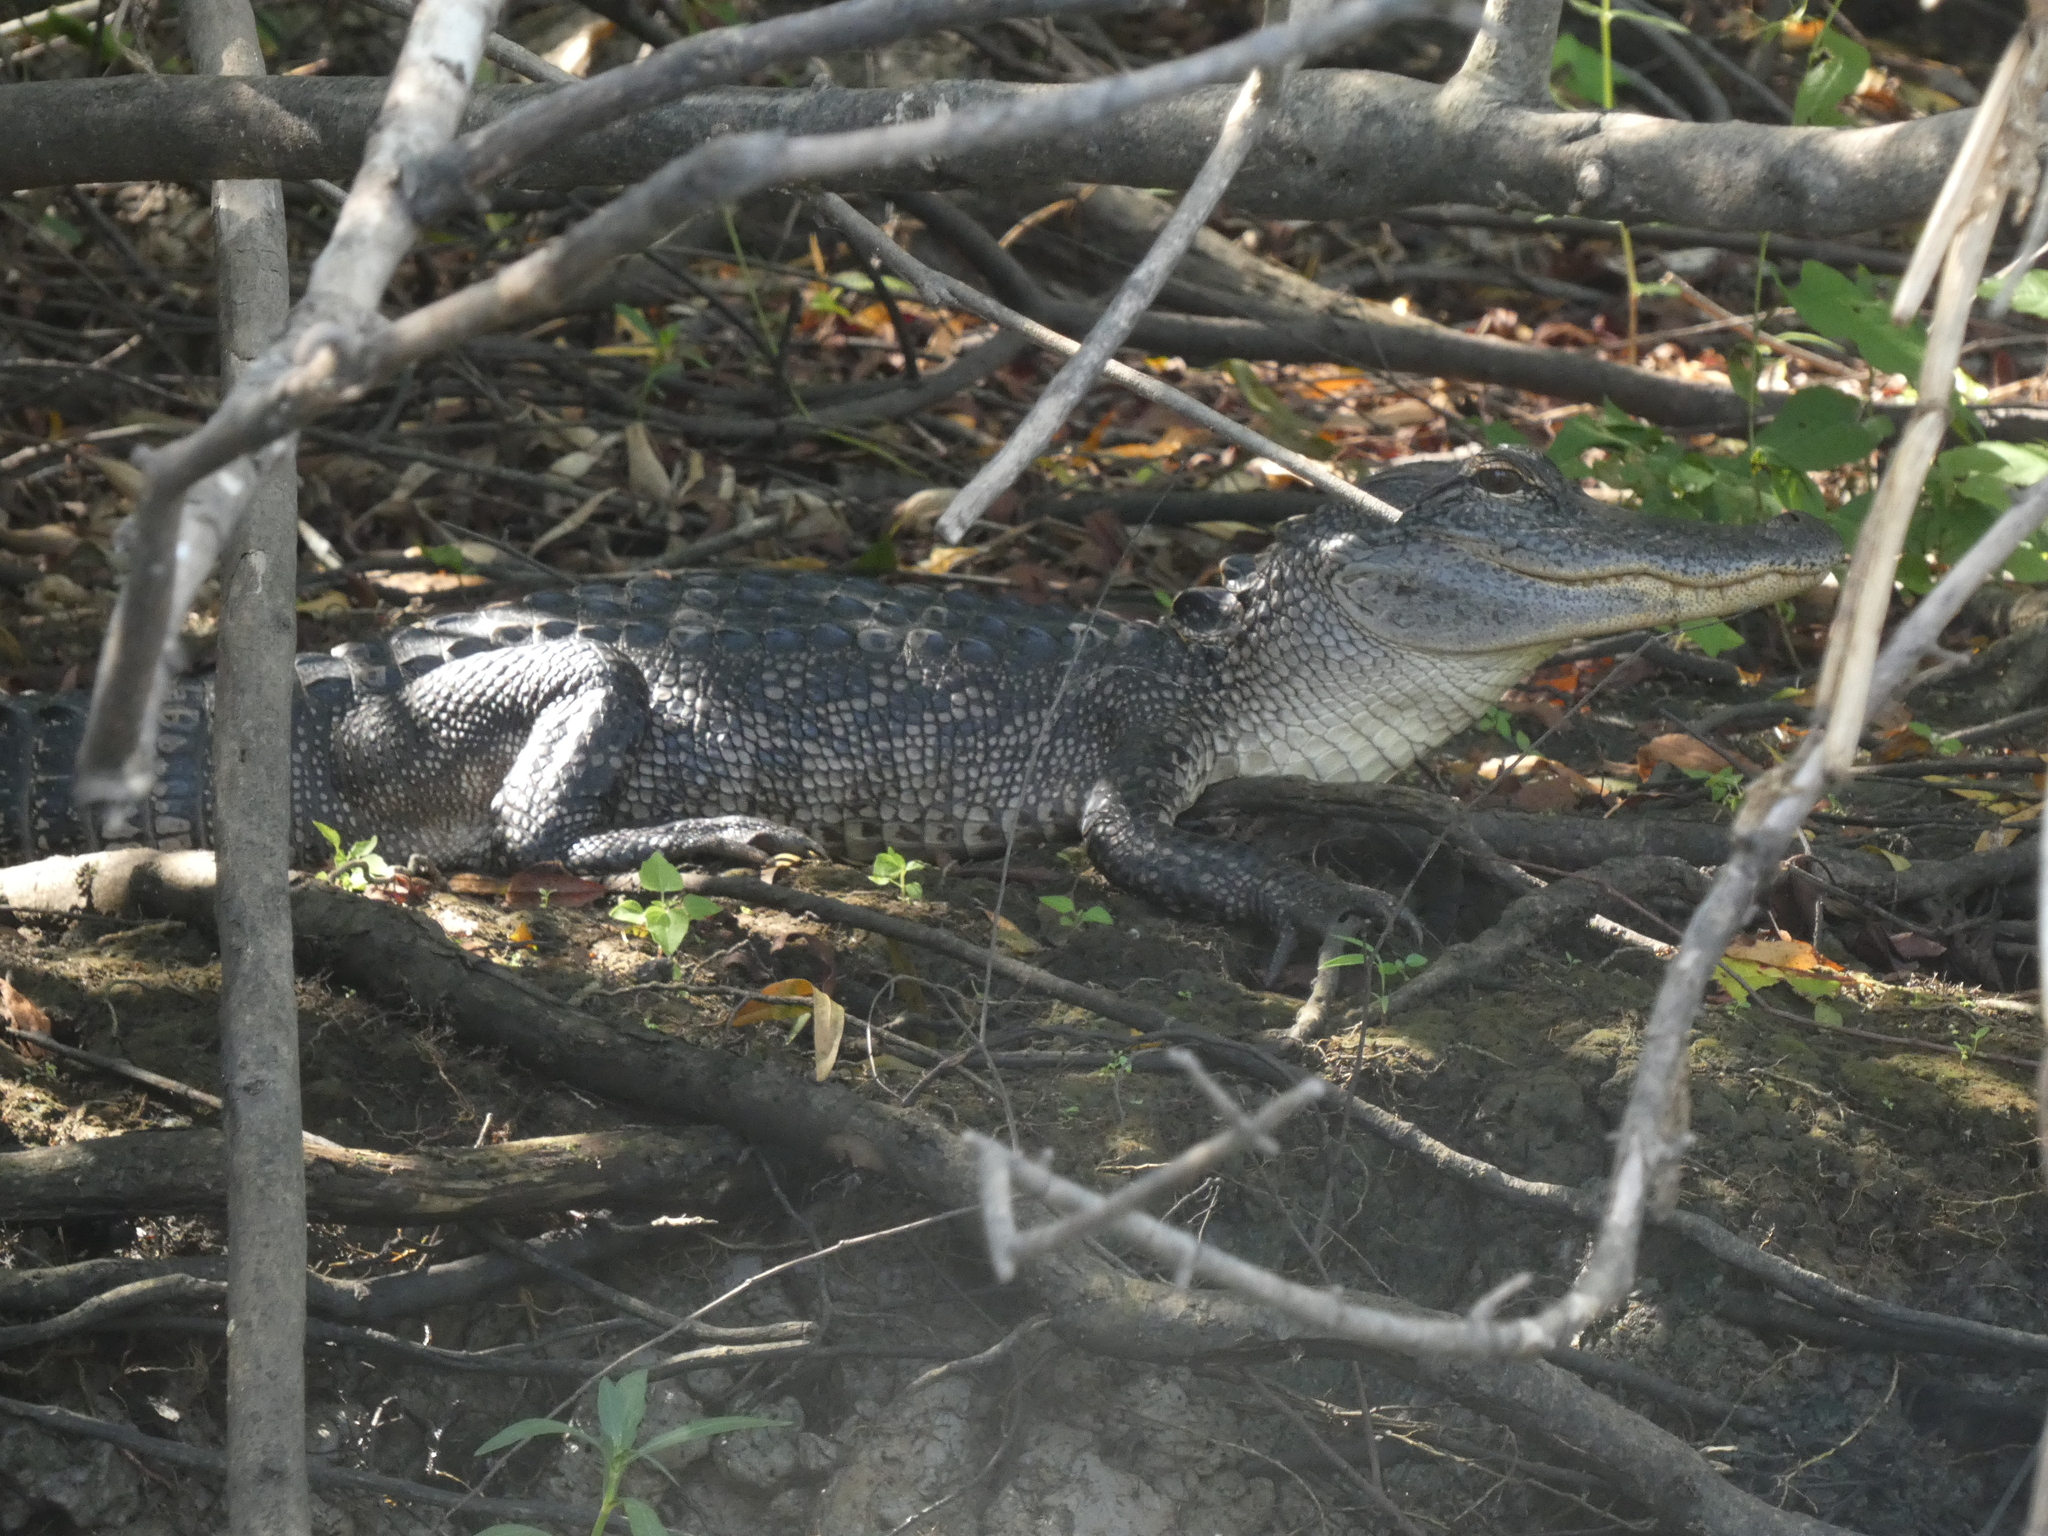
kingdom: Animalia
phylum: Chordata
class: Crocodylia
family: Alligatoridae
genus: Alligator
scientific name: Alligator mississippiensis
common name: American alligator
